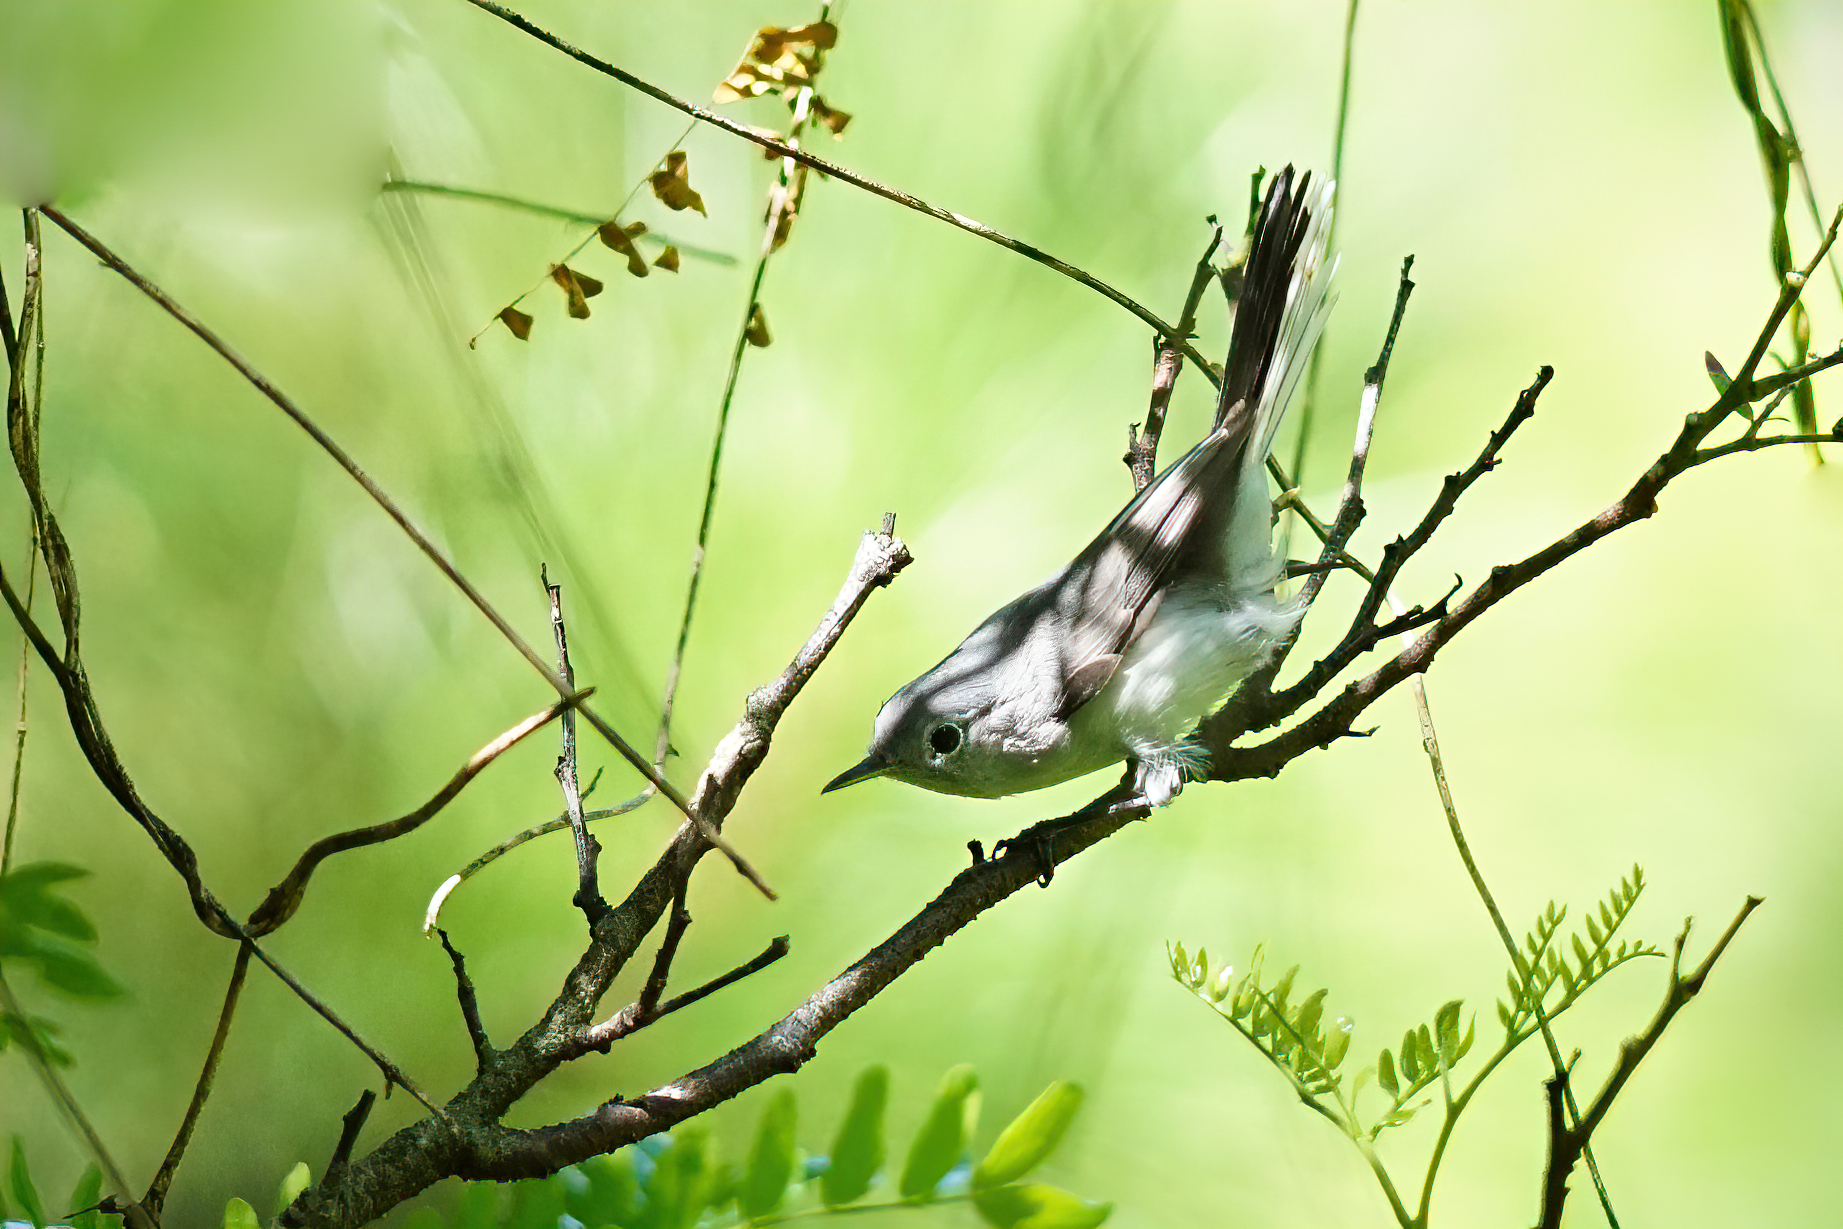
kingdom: Animalia
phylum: Chordata
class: Aves
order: Passeriformes
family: Polioptilidae
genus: Polioptila
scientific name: Polioptila caerulea
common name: Blue-gray gnatcatcher
